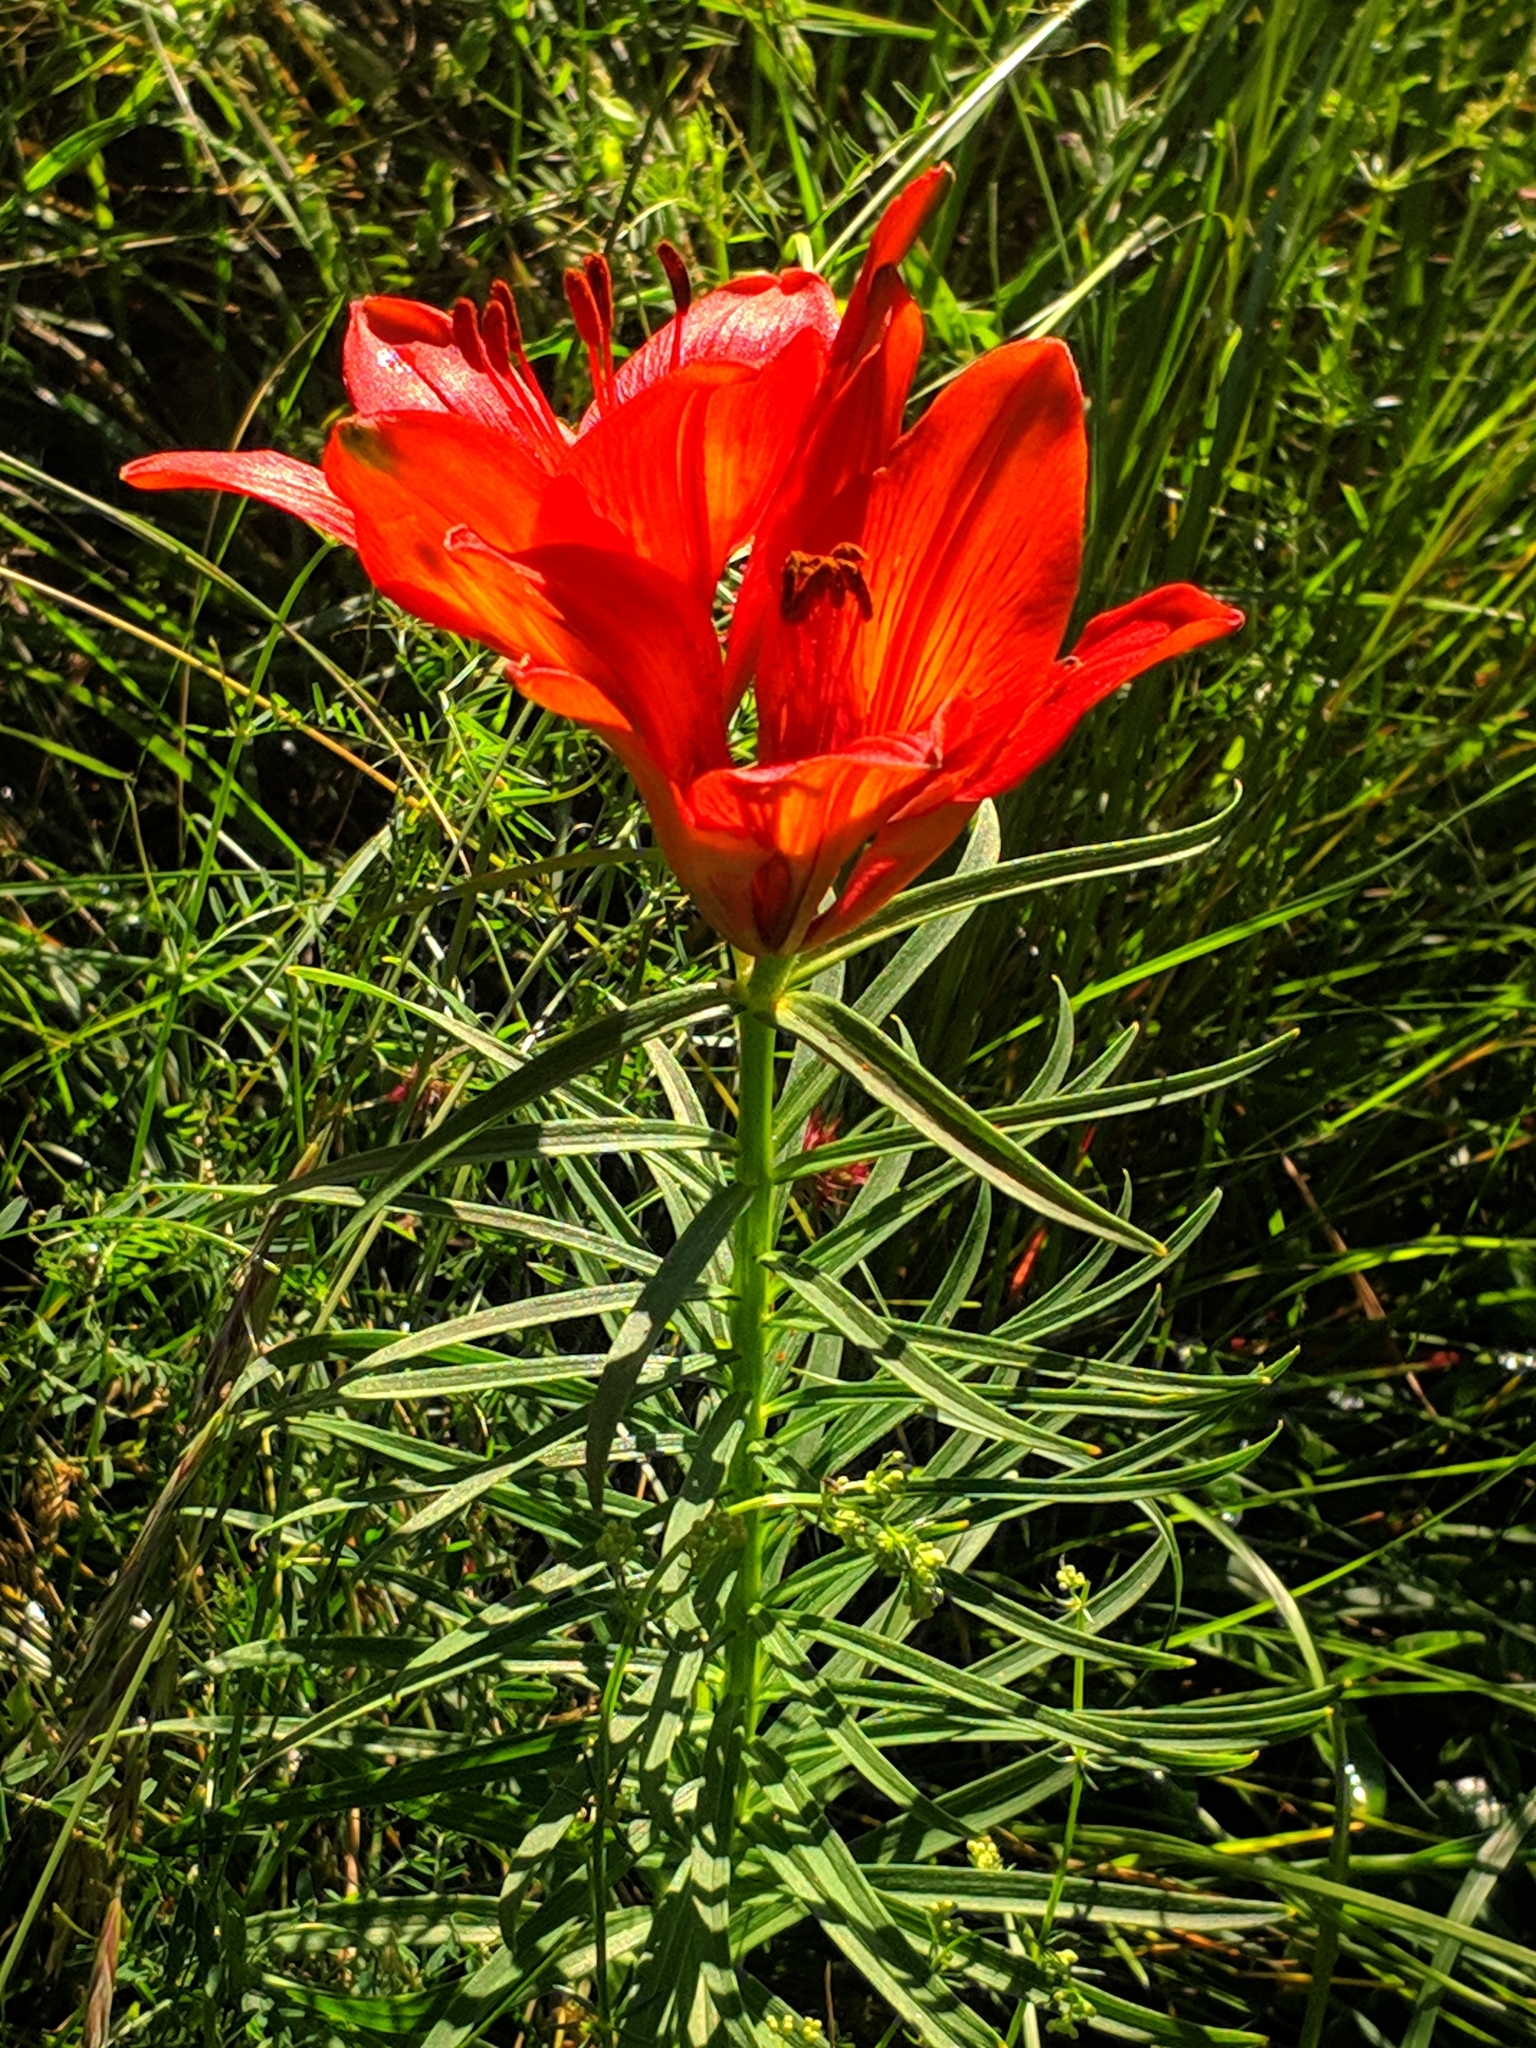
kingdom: Plantae
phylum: Tracheophyta
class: Liliopsida
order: Liliales
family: Liliaceae
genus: Lilium
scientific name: Lilium bulbiferum
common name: Orange lily
